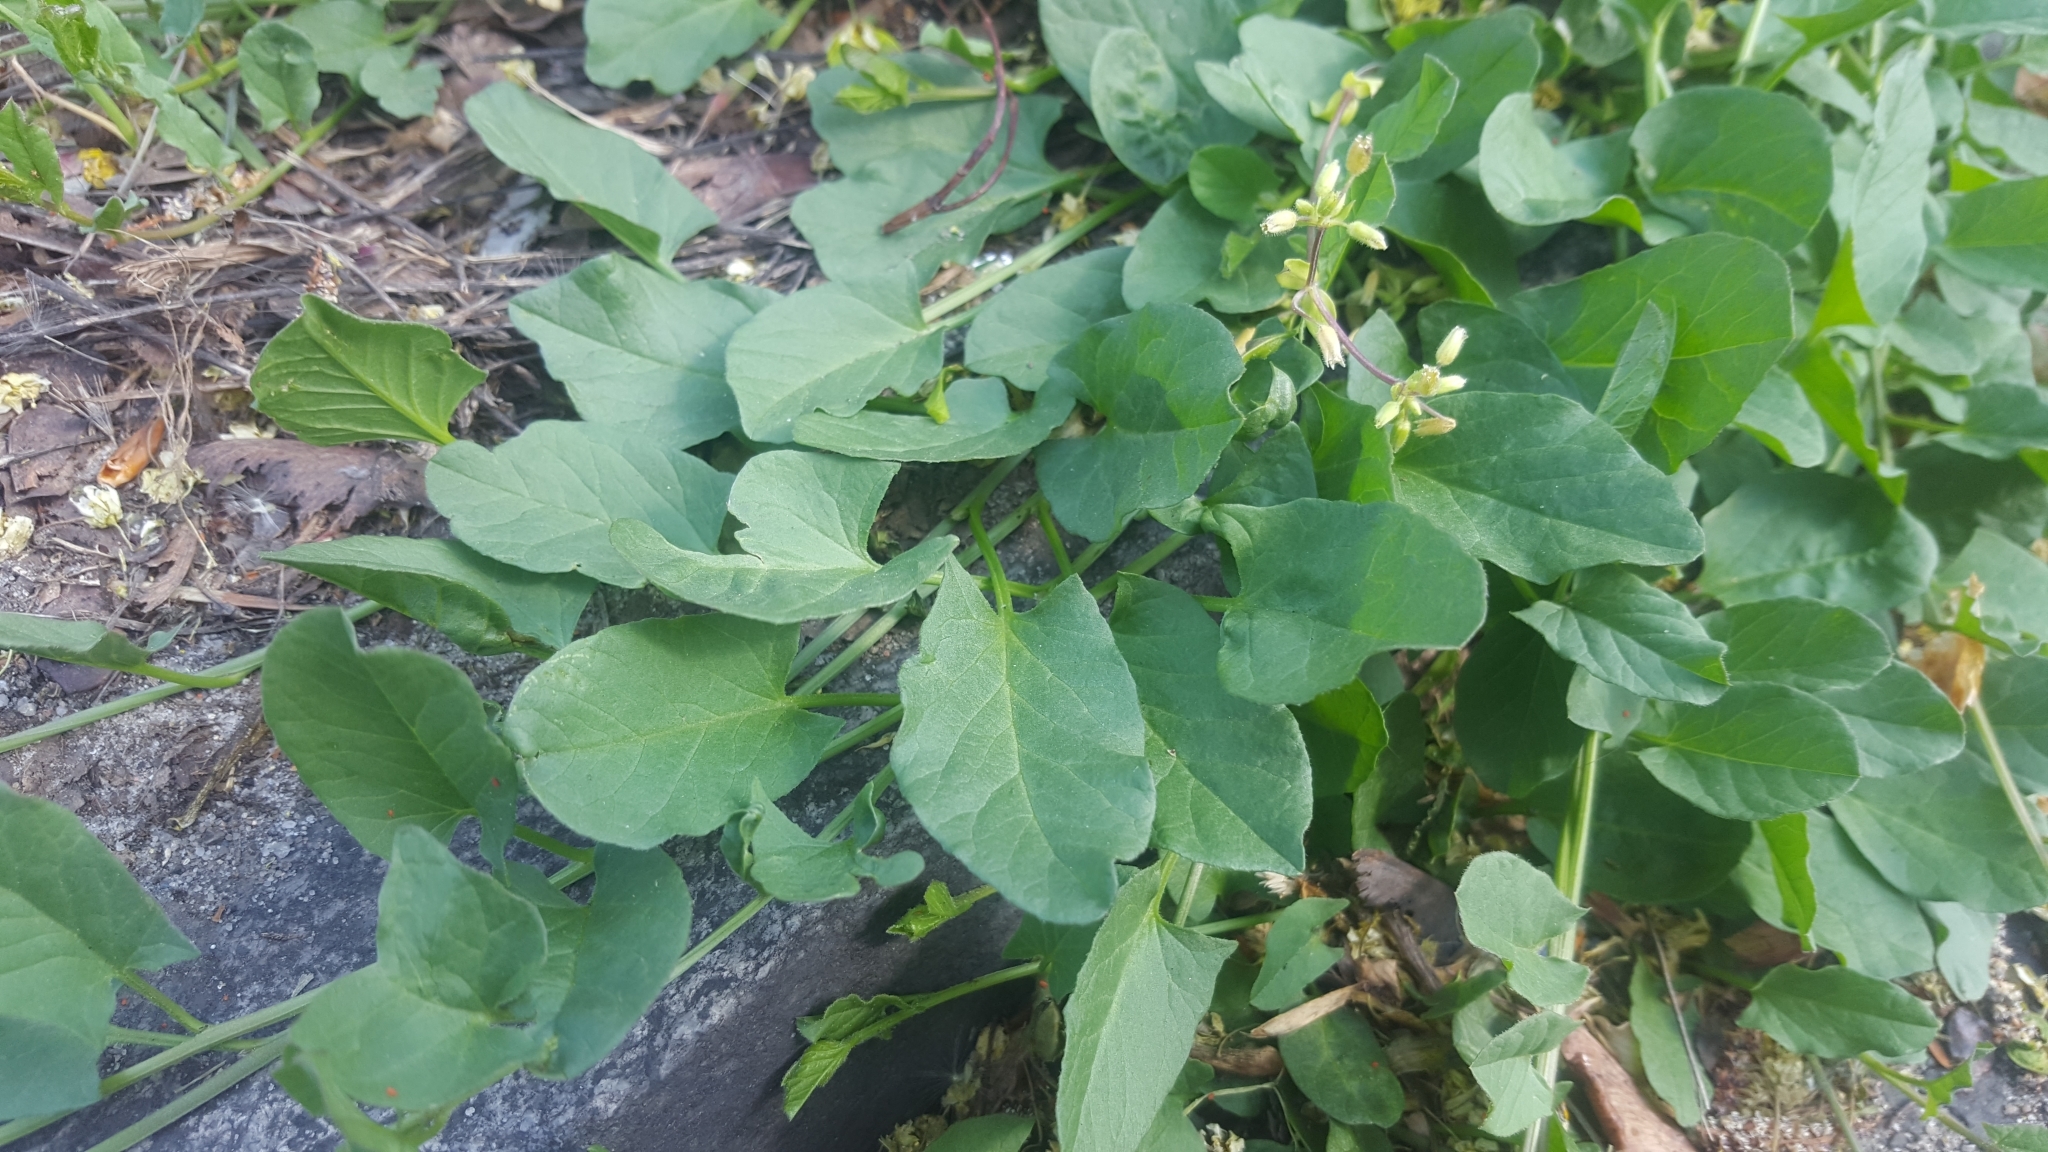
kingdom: Plantae
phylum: Tracheophyta
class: Magnoliopsida
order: Solanales
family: Convolvulaceae
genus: Convolvulus
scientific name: Convolvulus arvensis
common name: Field bindweed
